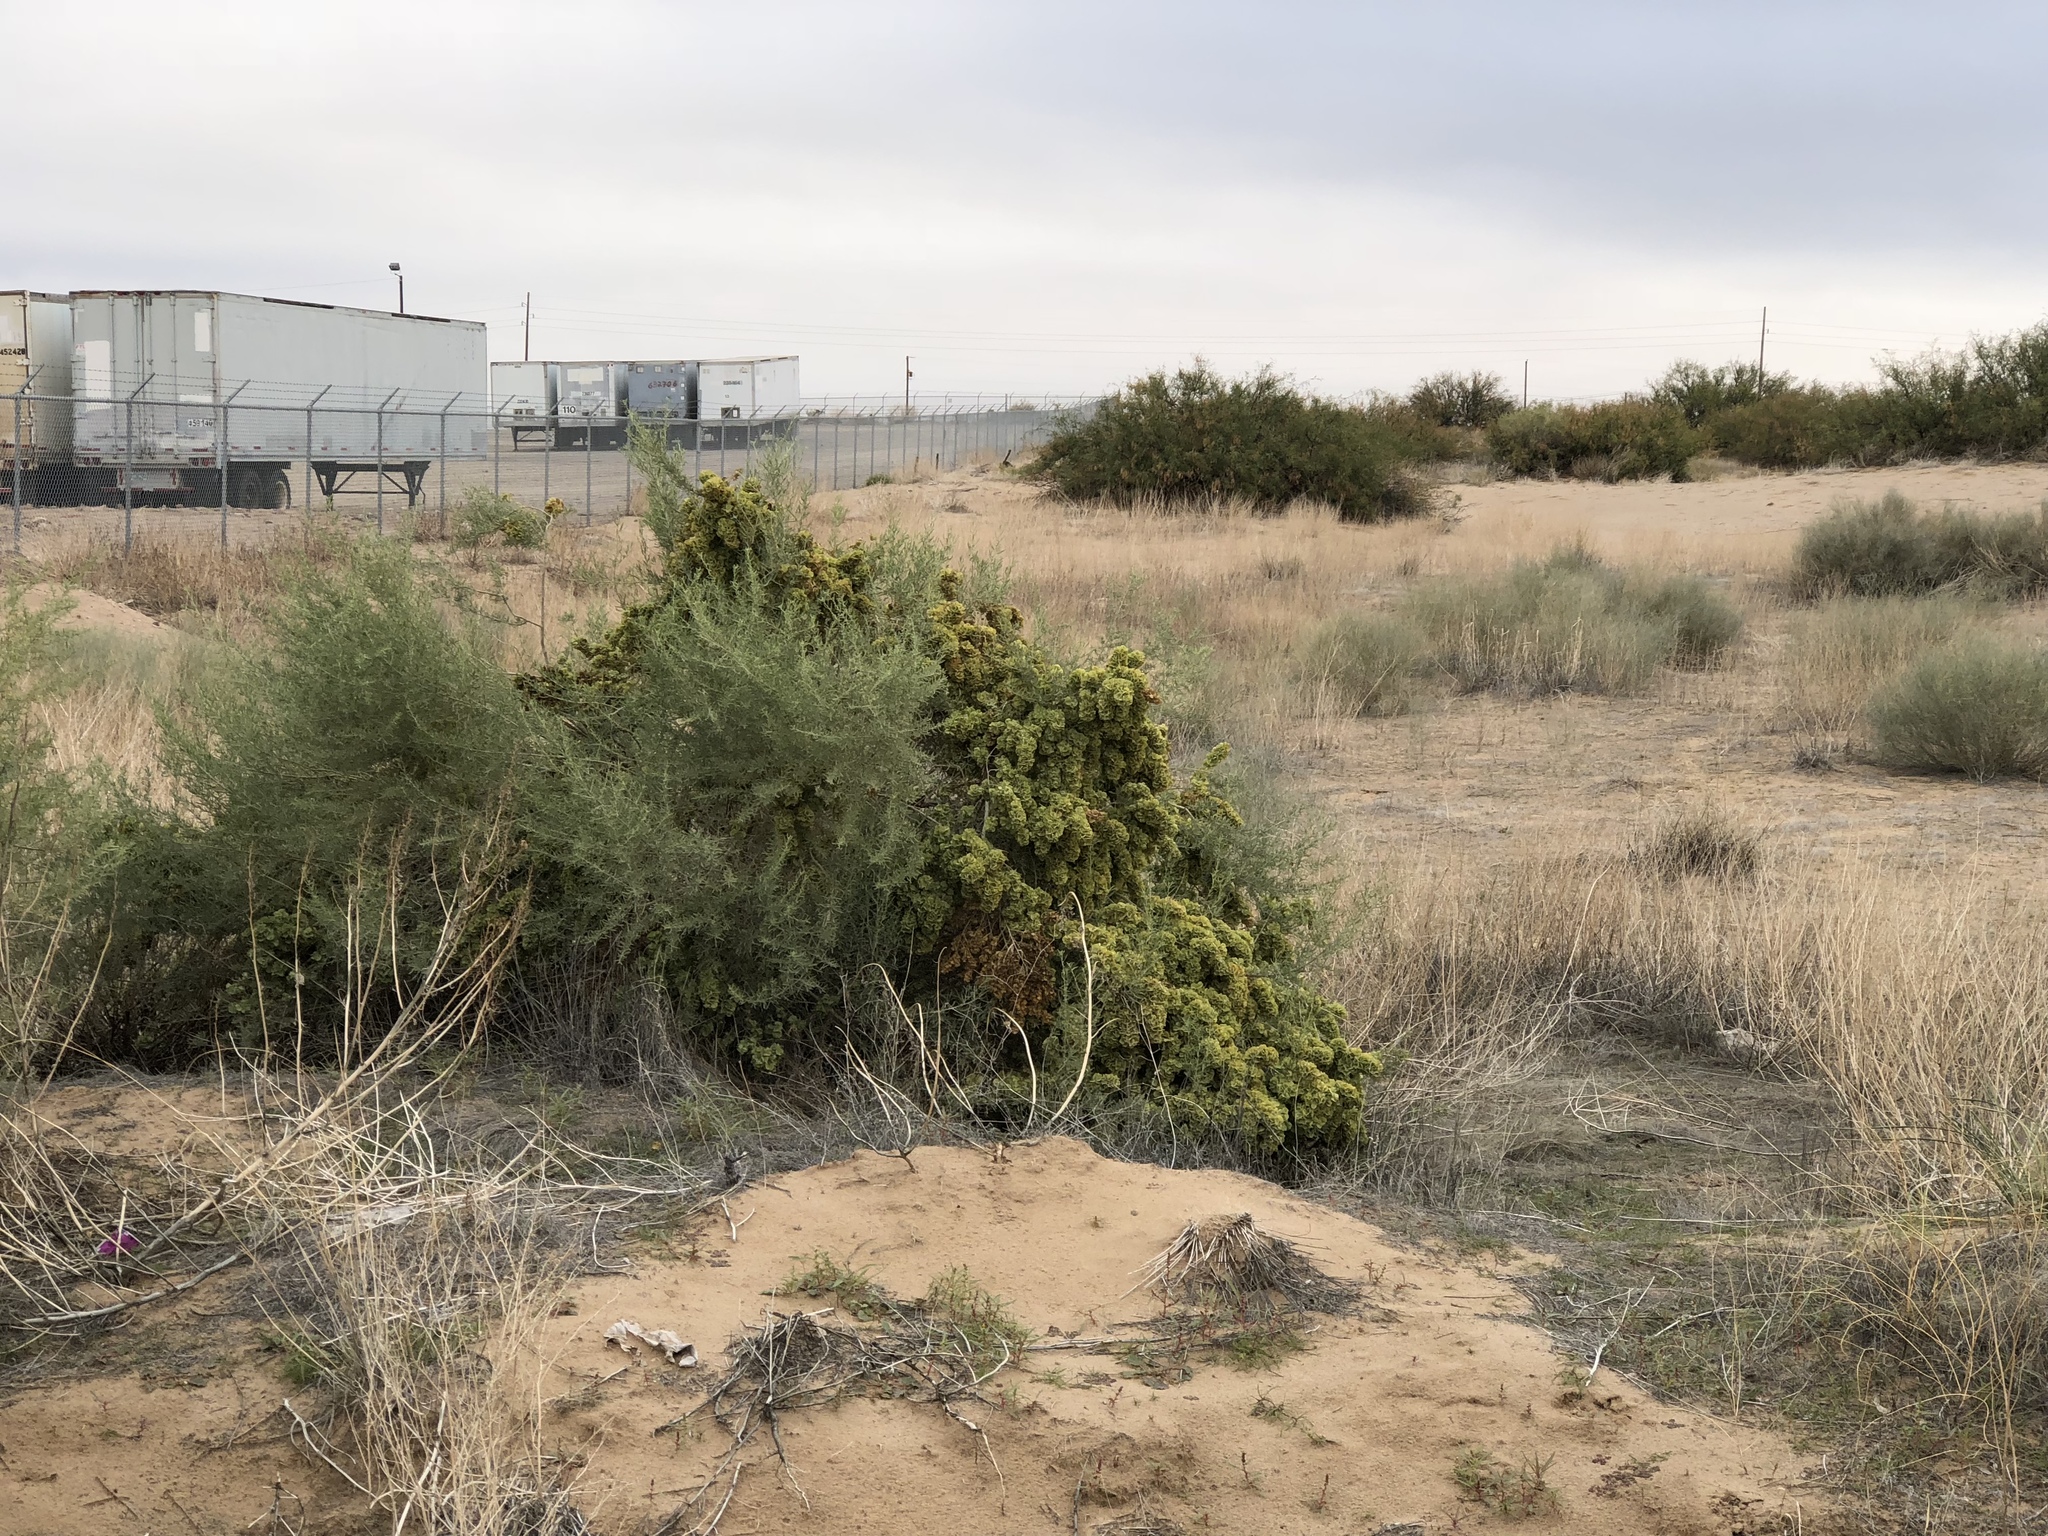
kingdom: Plantae
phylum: Tracheophyta
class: Magnoliopsida
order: Caryophyllales
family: Amaranthaceae
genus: Atriplex
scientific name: Atriplex canescens
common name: Four-wing saltbush
